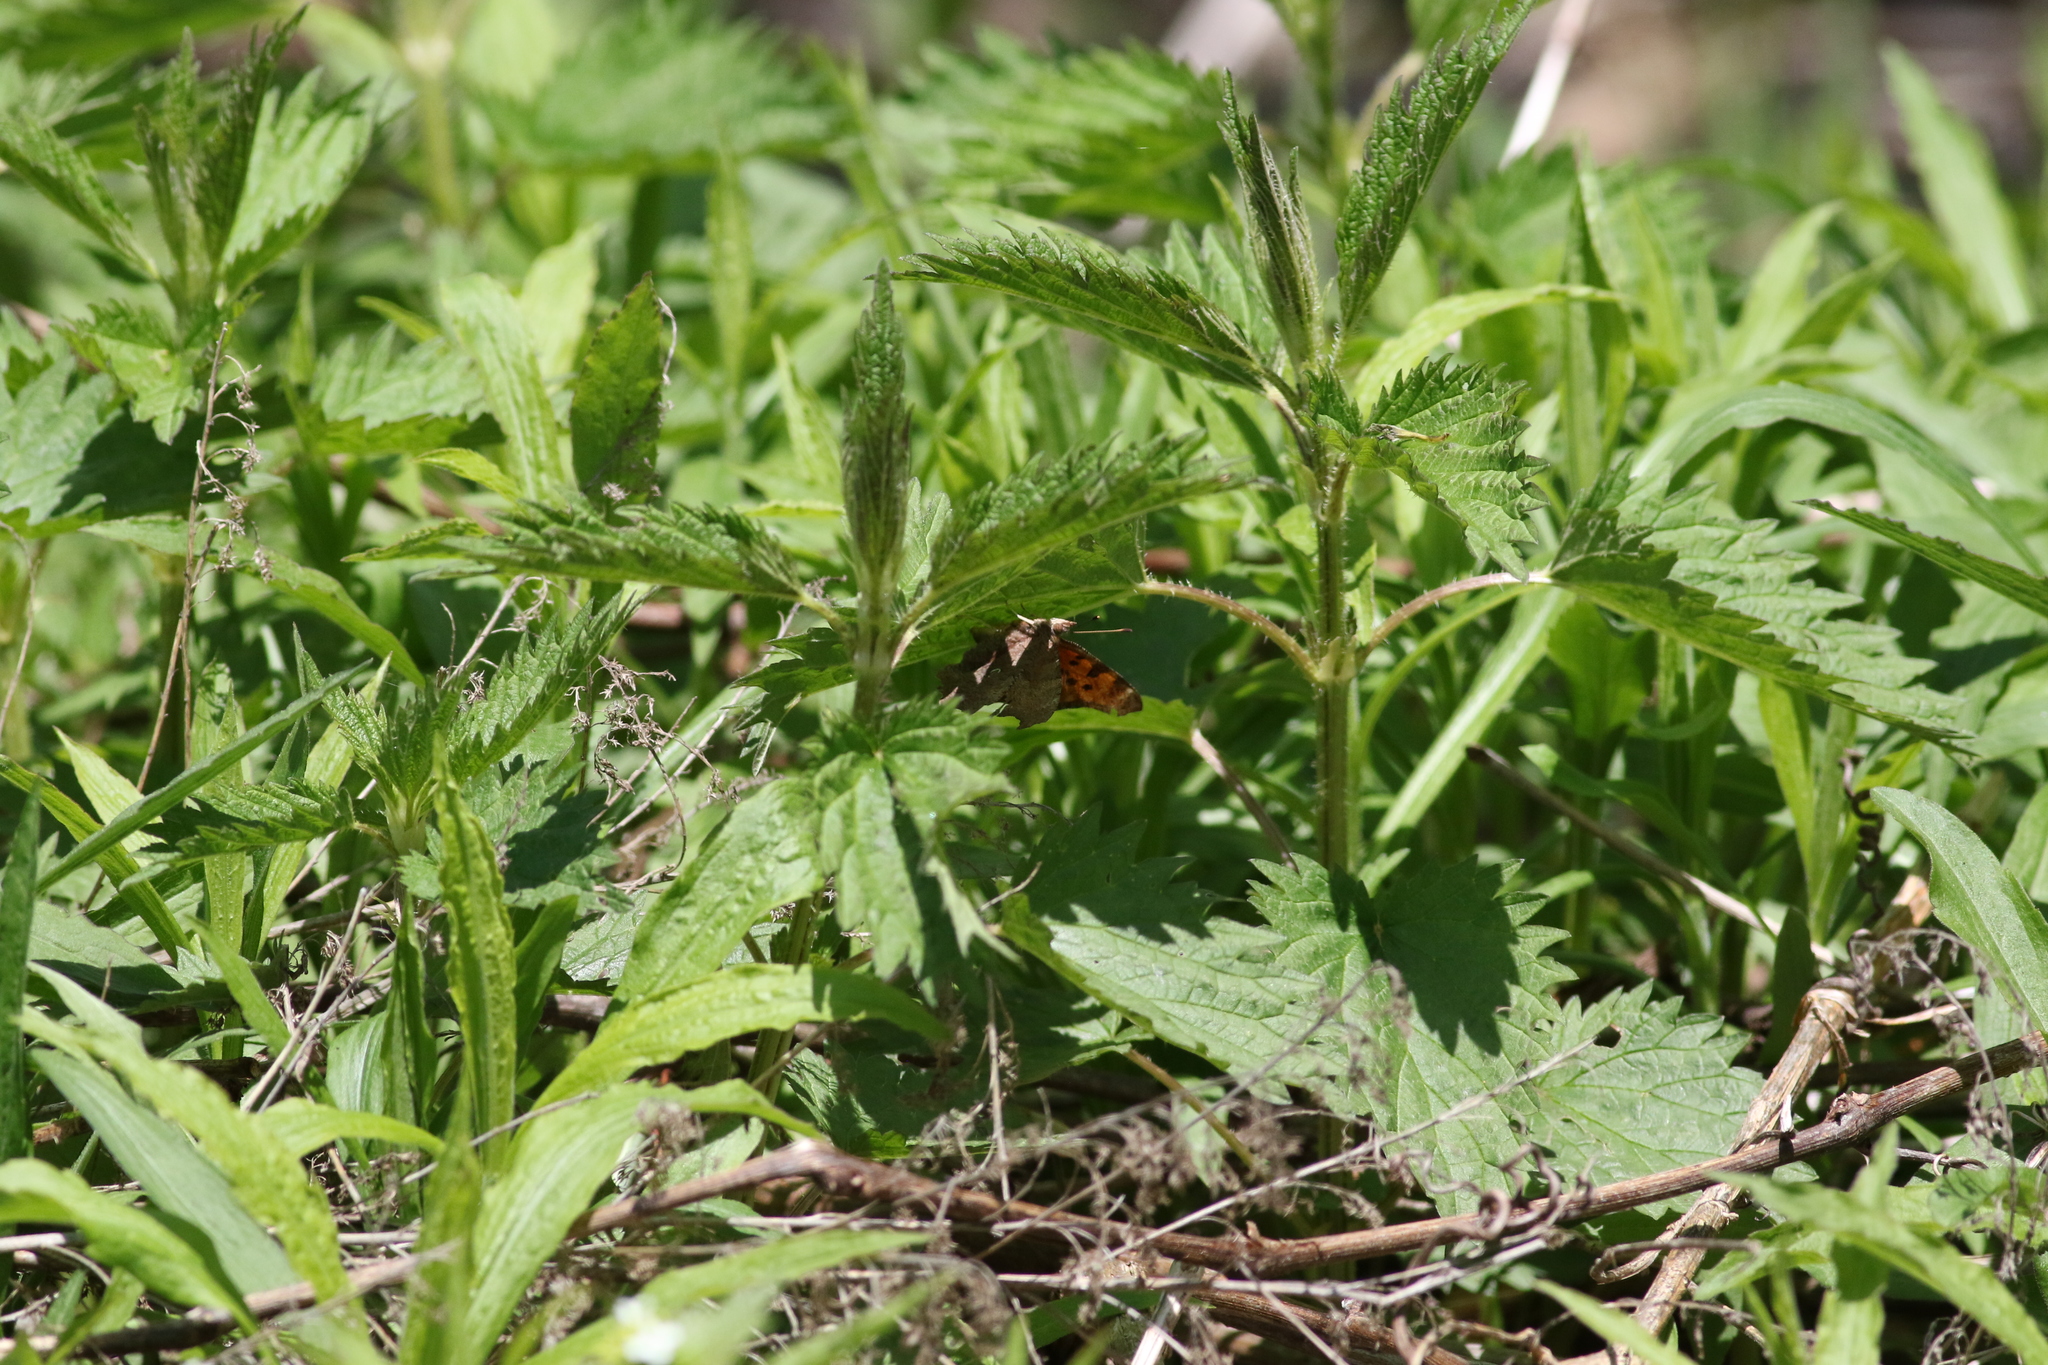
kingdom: Animalia
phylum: Arthropoda
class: Insecta
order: Lepidoptera
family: Nymphalidae
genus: Polygonia
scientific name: Polygonia comma
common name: Eastern comma
